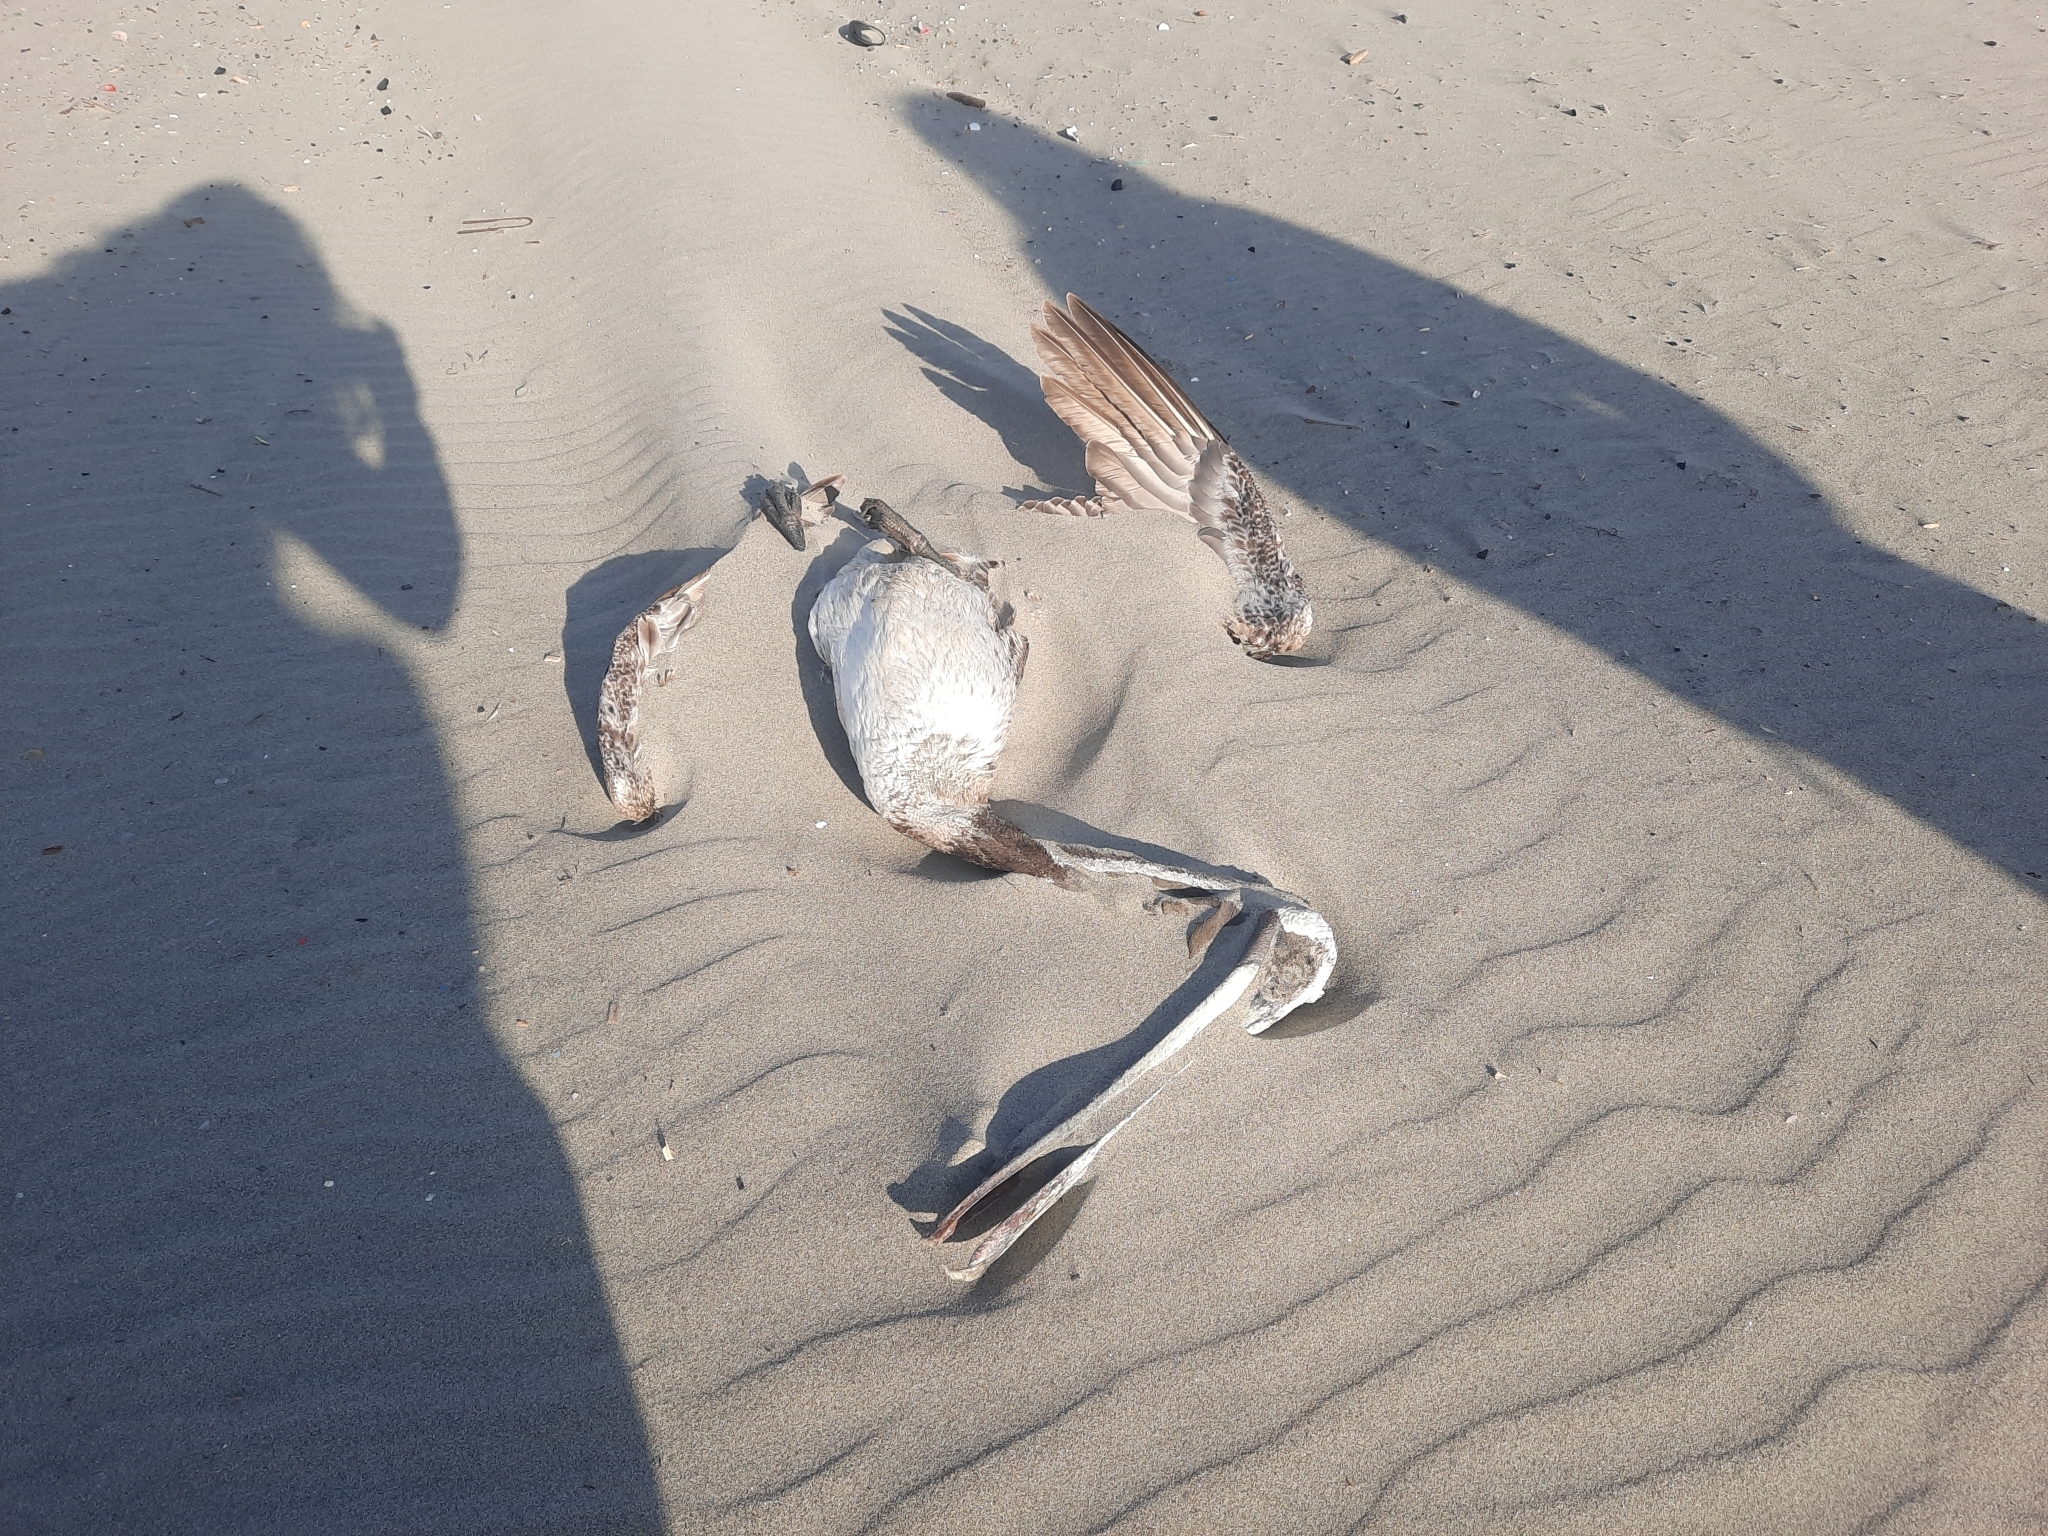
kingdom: Animalia
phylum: Chordata
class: Aves
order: Pelecaniformes
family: Pelecanidae
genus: Pelecanus
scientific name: Pelecanus occidentalis
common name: Brown pelican
